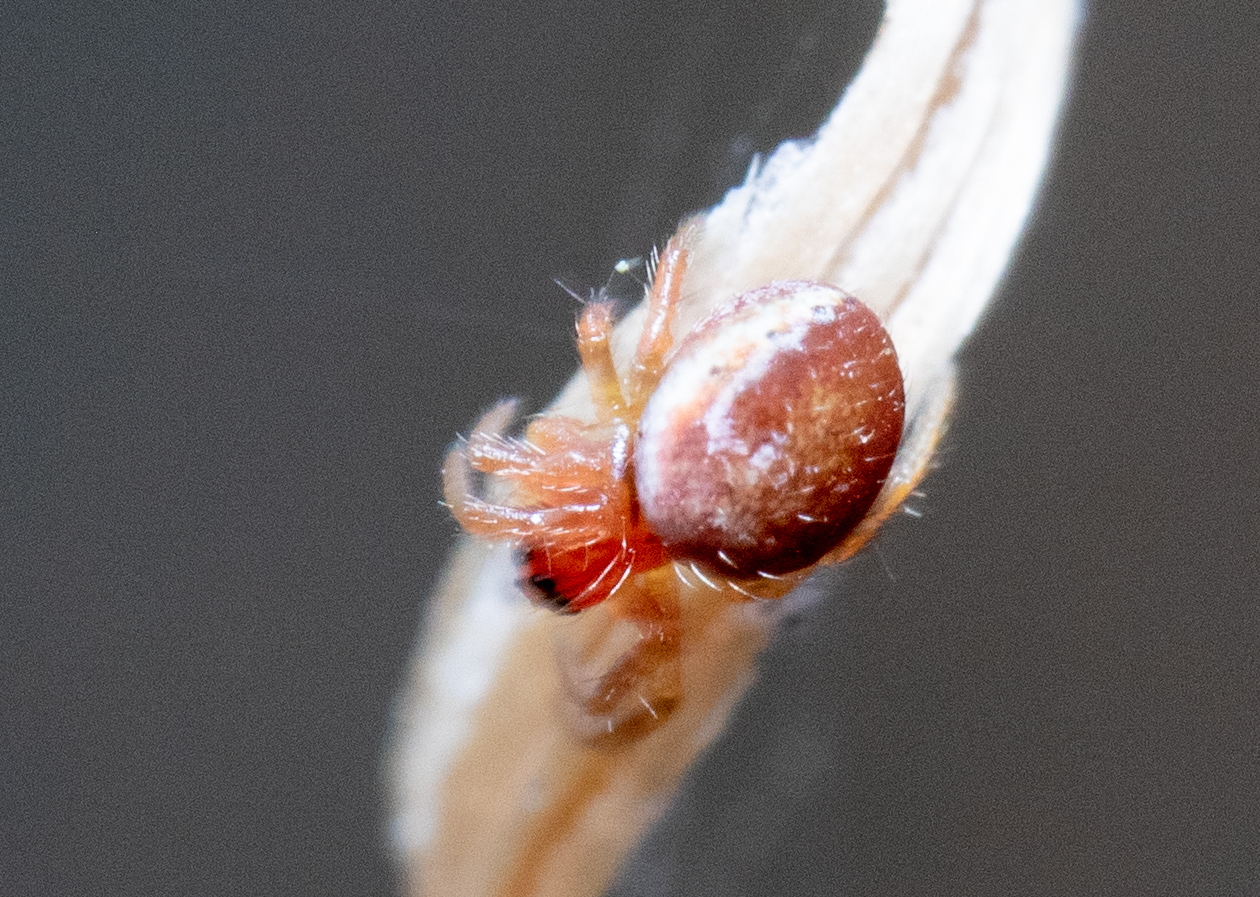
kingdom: Animalia
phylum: Arthropoda
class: Arachnida
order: Araneae
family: Araneidae
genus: Araniella
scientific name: Araniella
